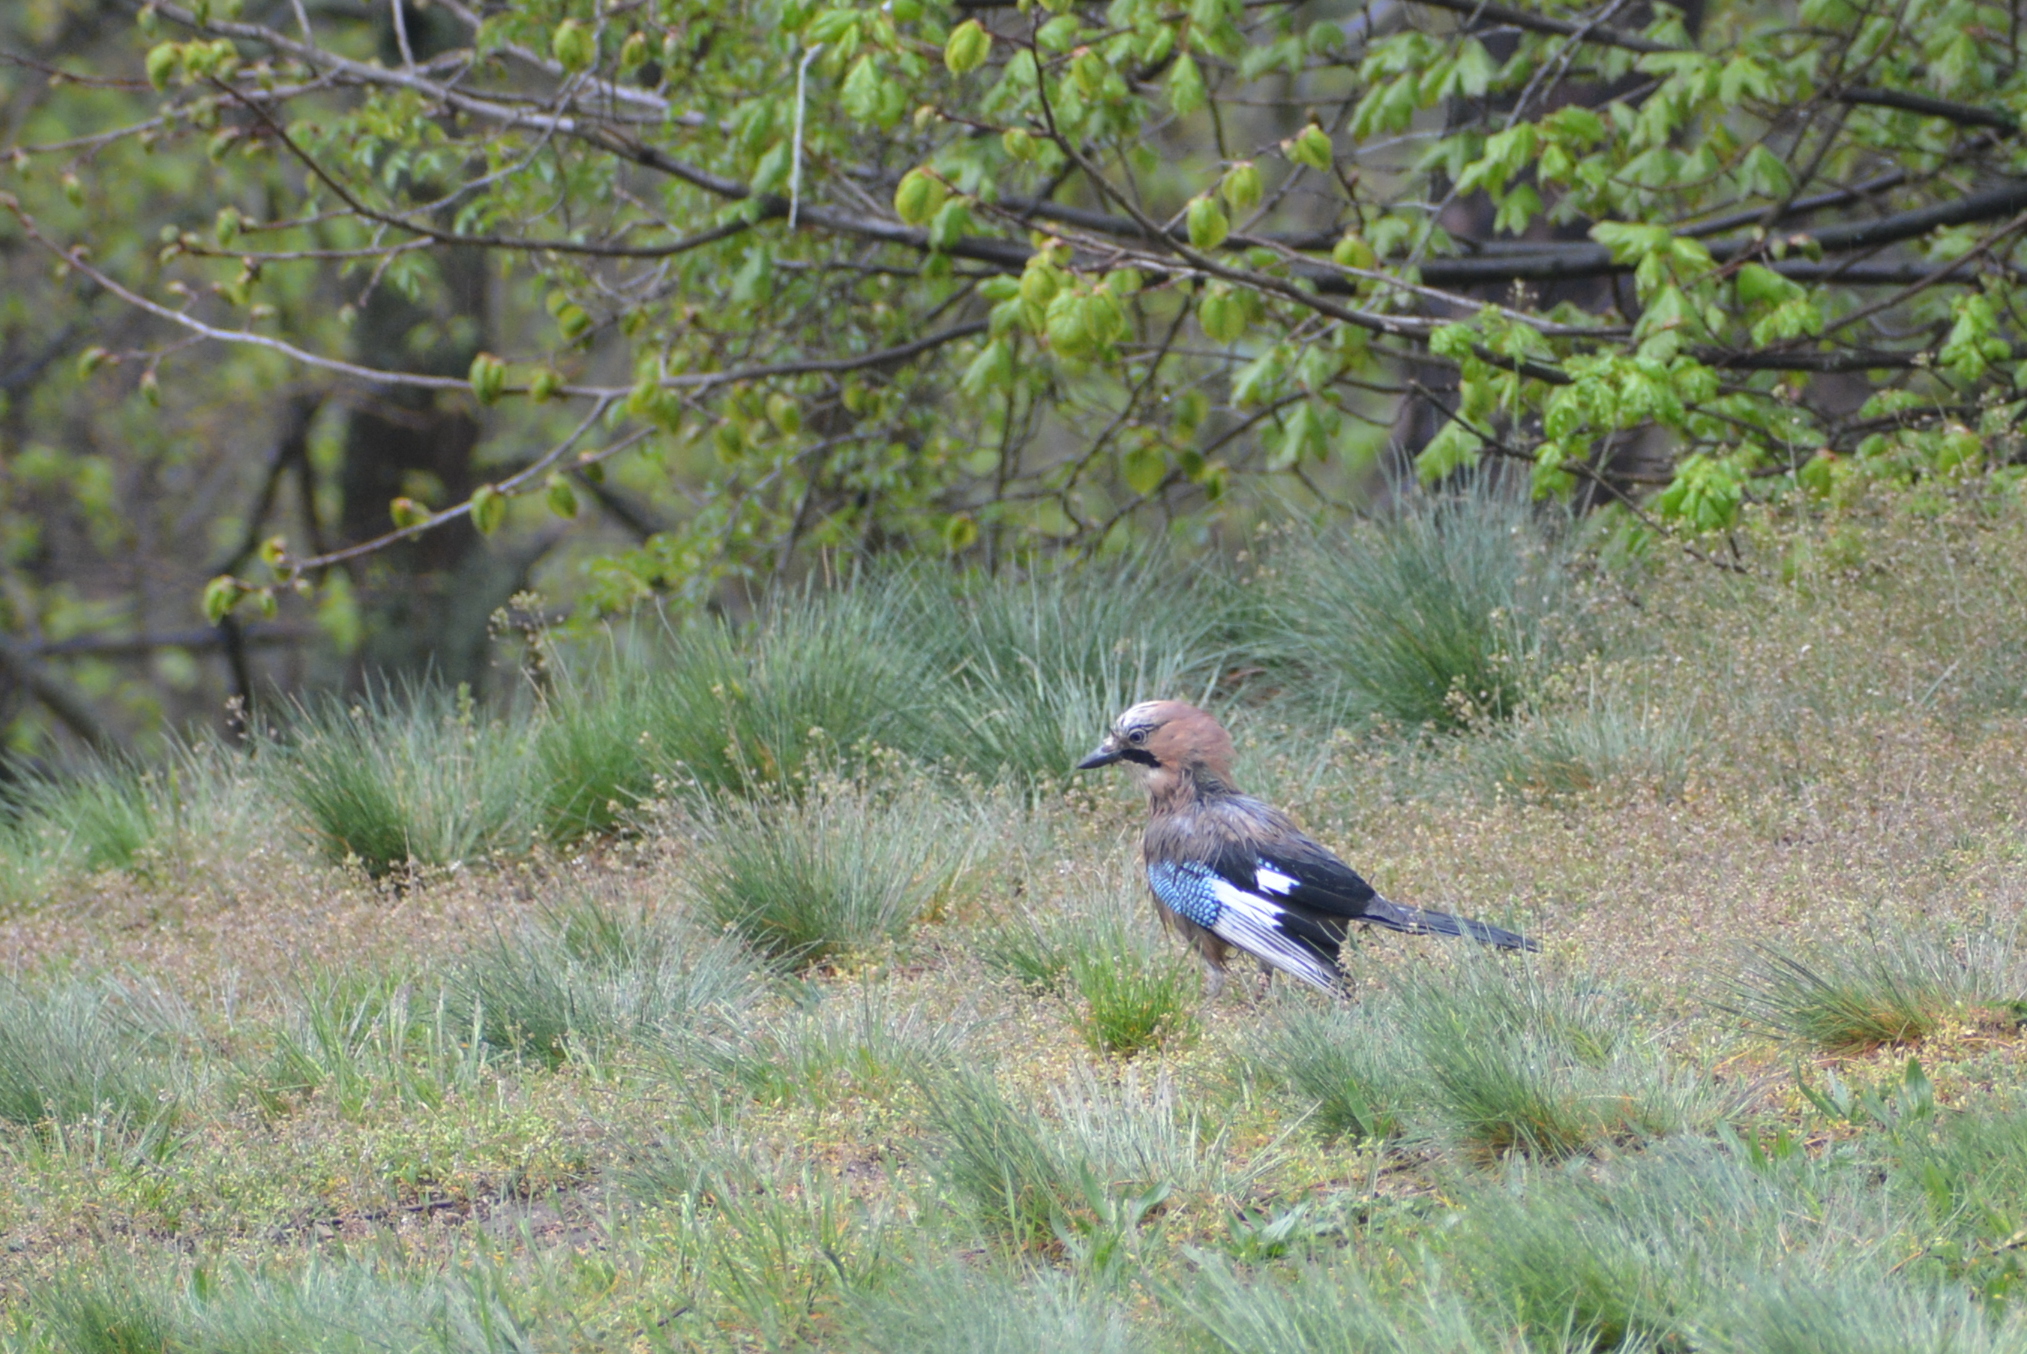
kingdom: Animalia
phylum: Chordata
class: Aves
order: Passeriformes
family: Corvidae
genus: Garrulus
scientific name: Garrulus glandarius
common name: Eurasian jay
